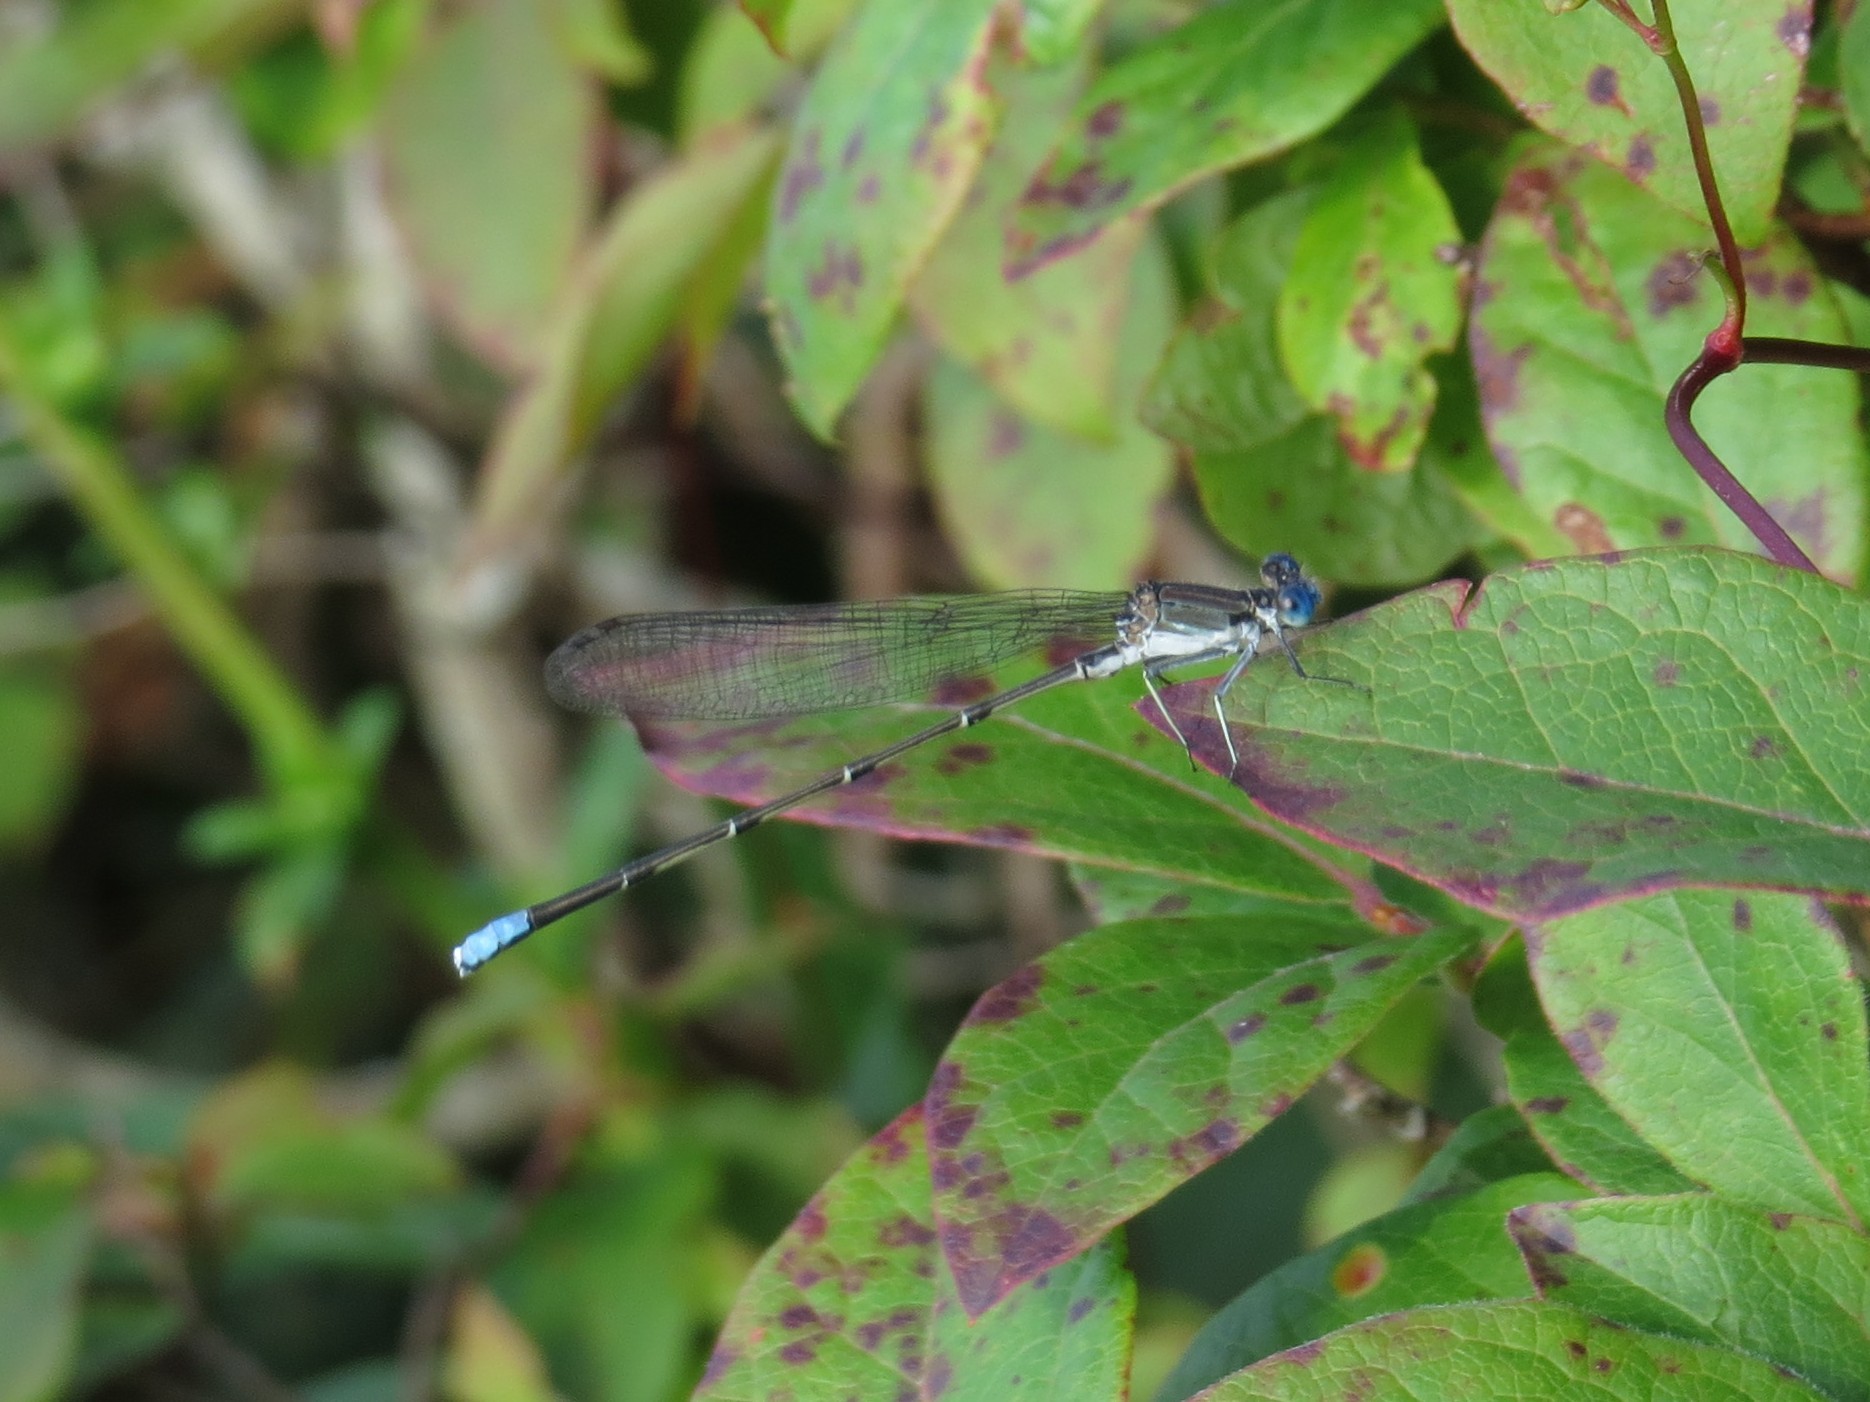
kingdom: Animalia
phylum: Arthropoda
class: Insecta
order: Odonata
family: Coenagrionidae
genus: Argia
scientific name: Argia apicalis
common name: Blue-fronted dancer
